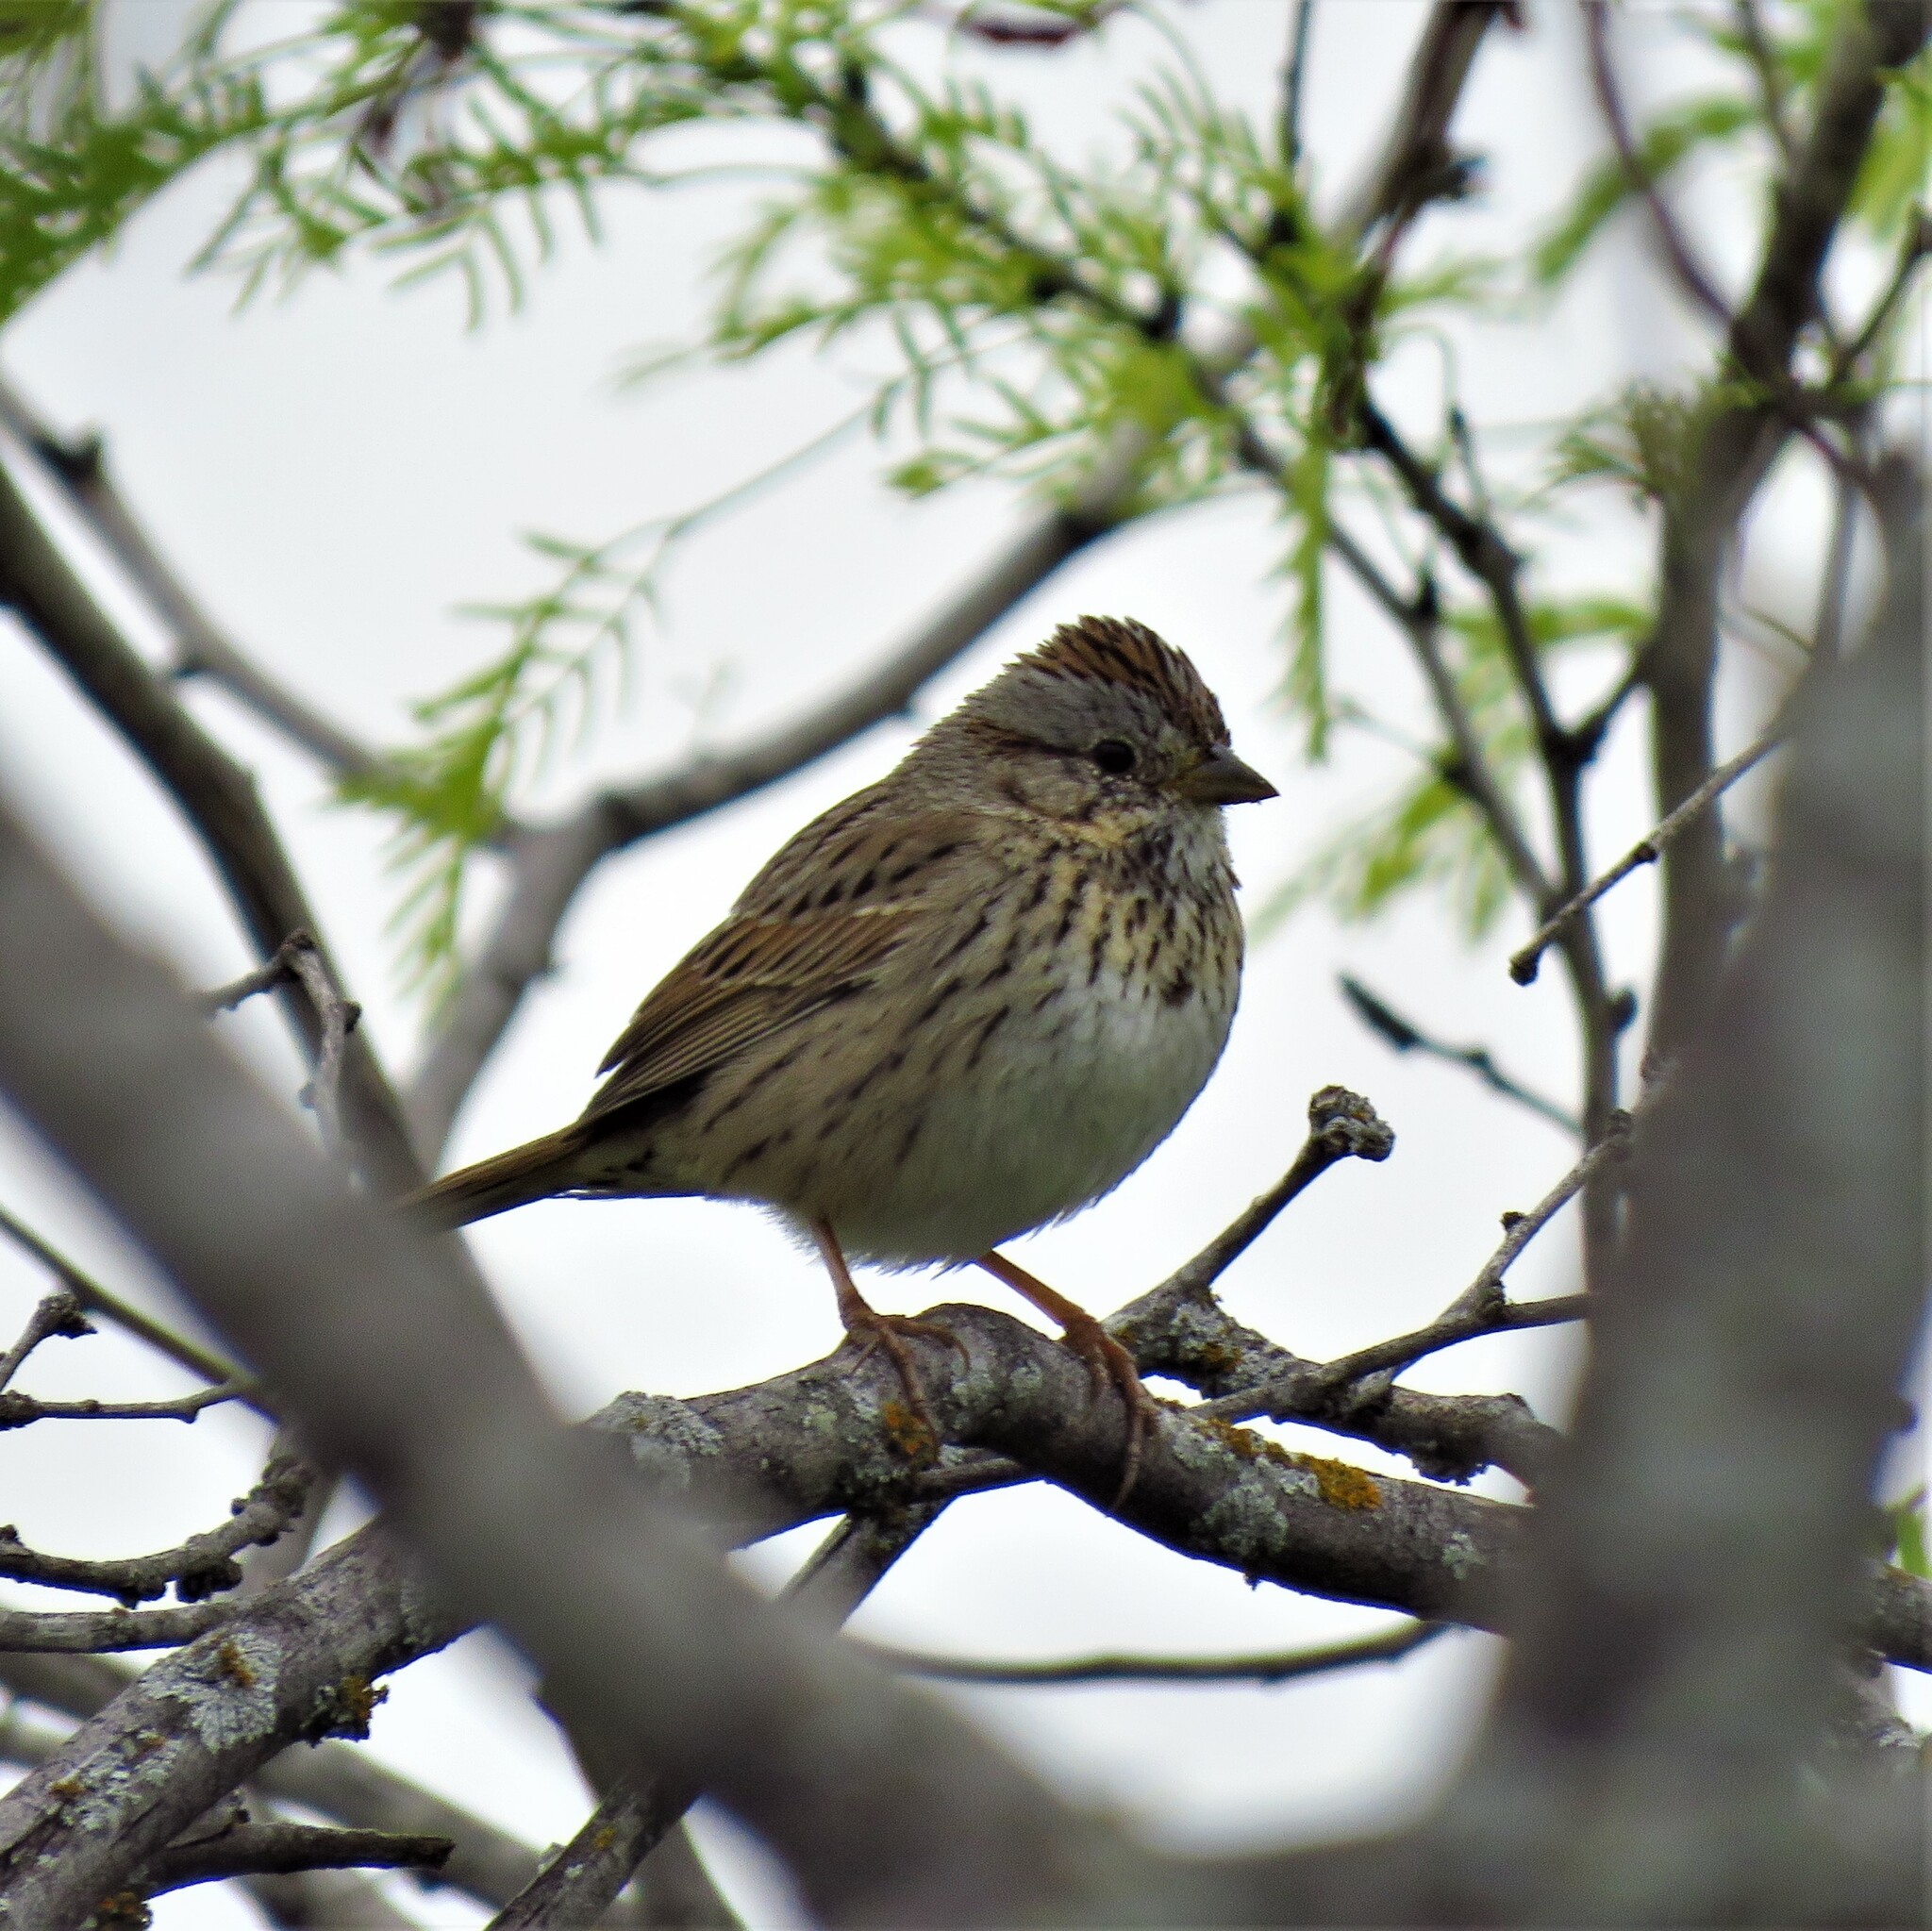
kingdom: Animalia
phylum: Chordata
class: Aves
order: Passeriformes
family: Passerellidae
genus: Melospiza
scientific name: Melospiza lincolnii
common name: Lincoln's sparrow
